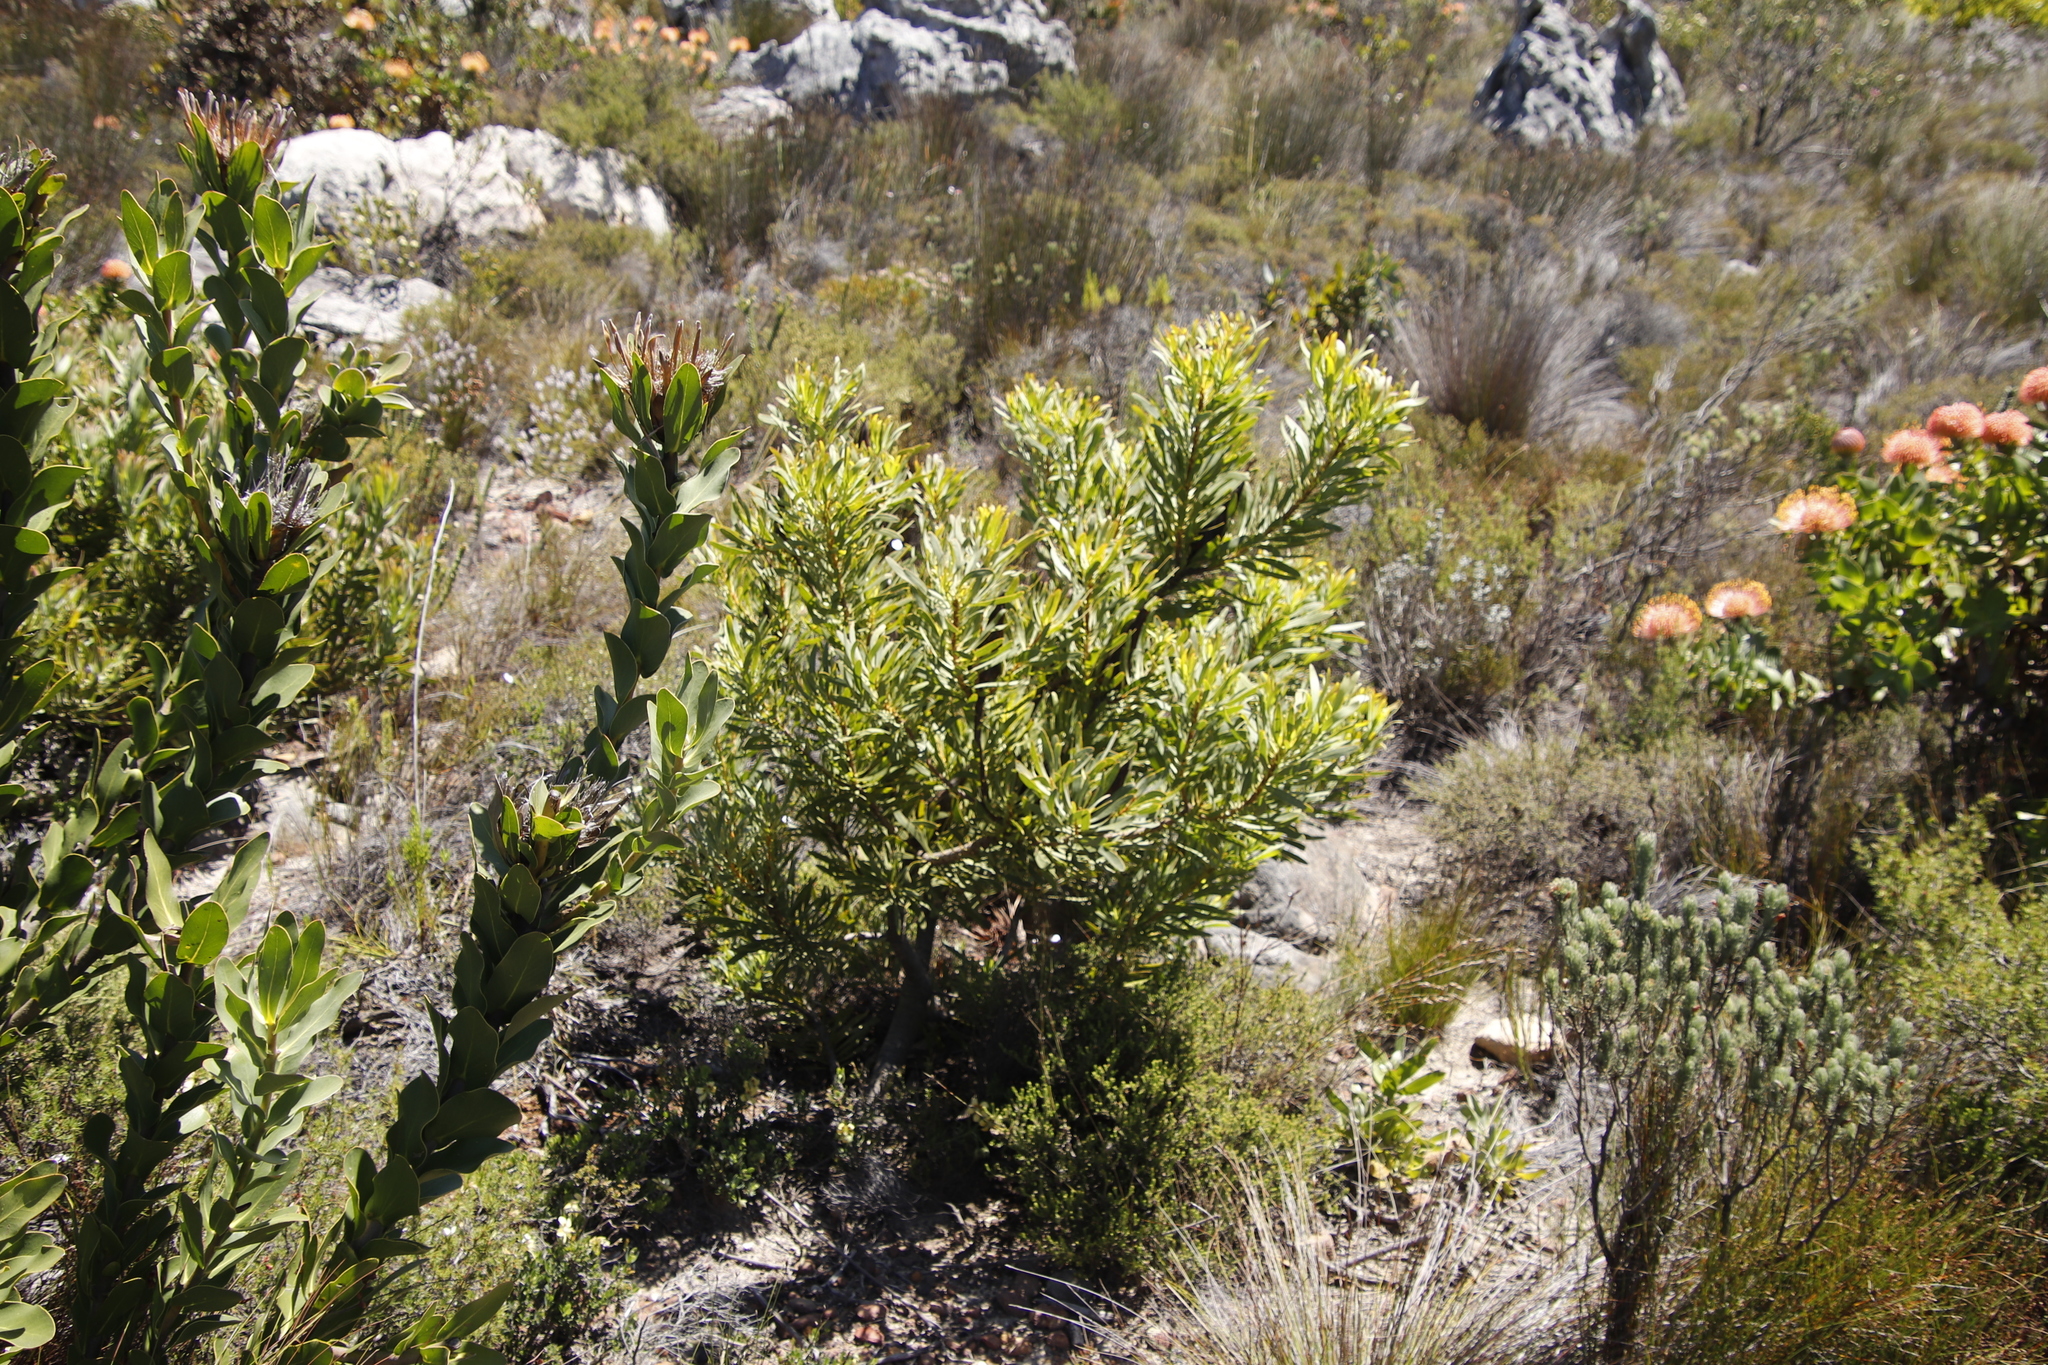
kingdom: Plantae
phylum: Tracheophyta
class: Magnoliopsida
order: Proteales
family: Proteaceae
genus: Protea
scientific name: Protea repens
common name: Sugarbush
